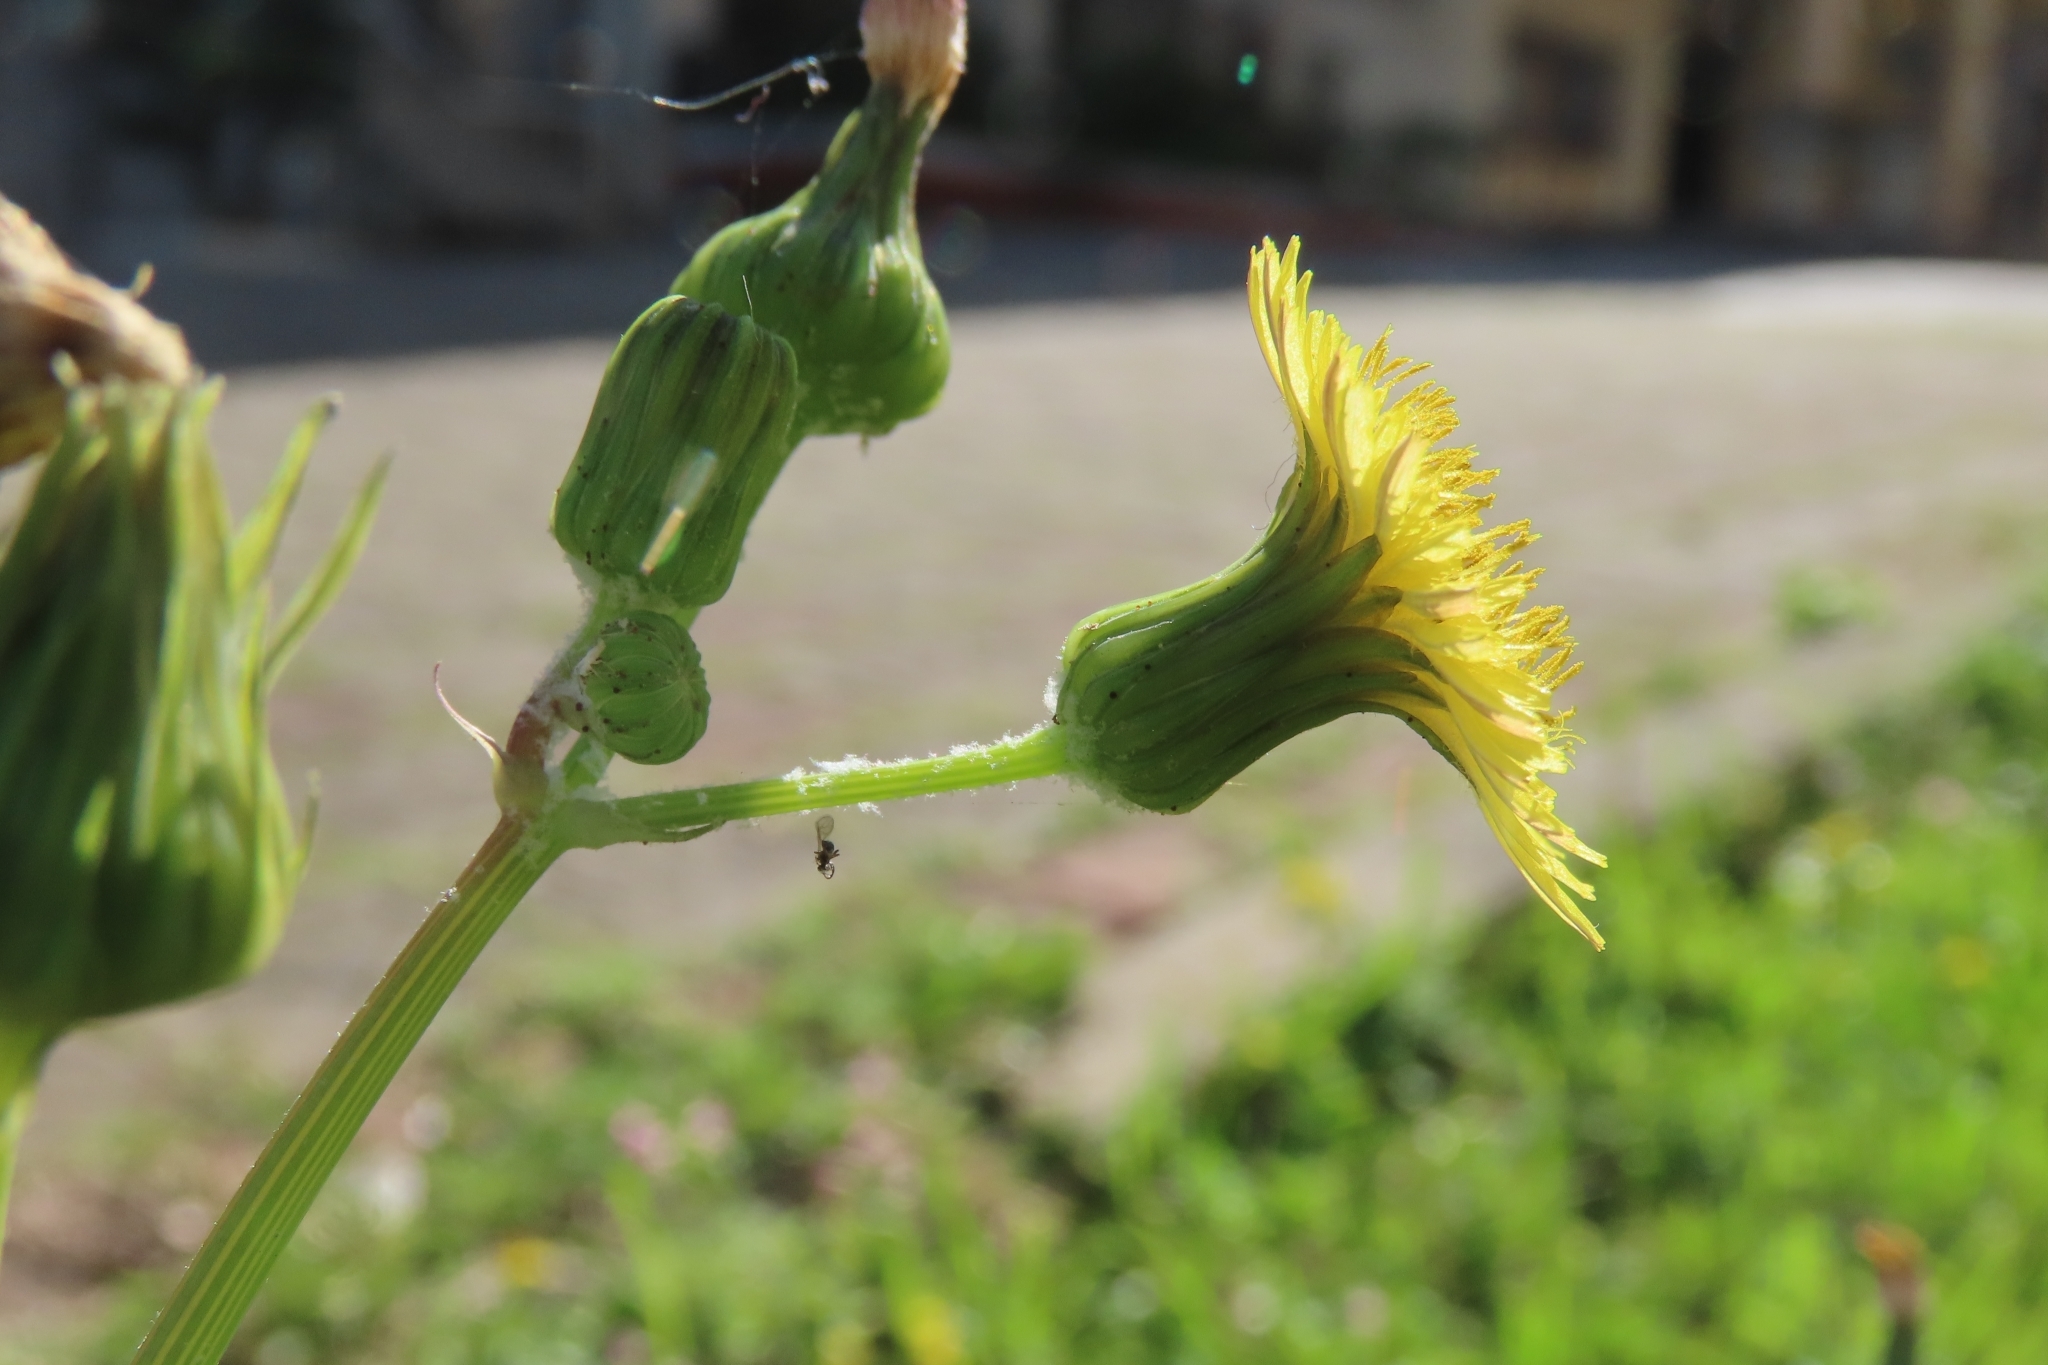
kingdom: Plantae
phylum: Tracheophyta
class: Magnoliopsida
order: Asterales
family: Asteraceae
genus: Sonchus
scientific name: Sonchus oleraceus
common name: Common sowthistle
